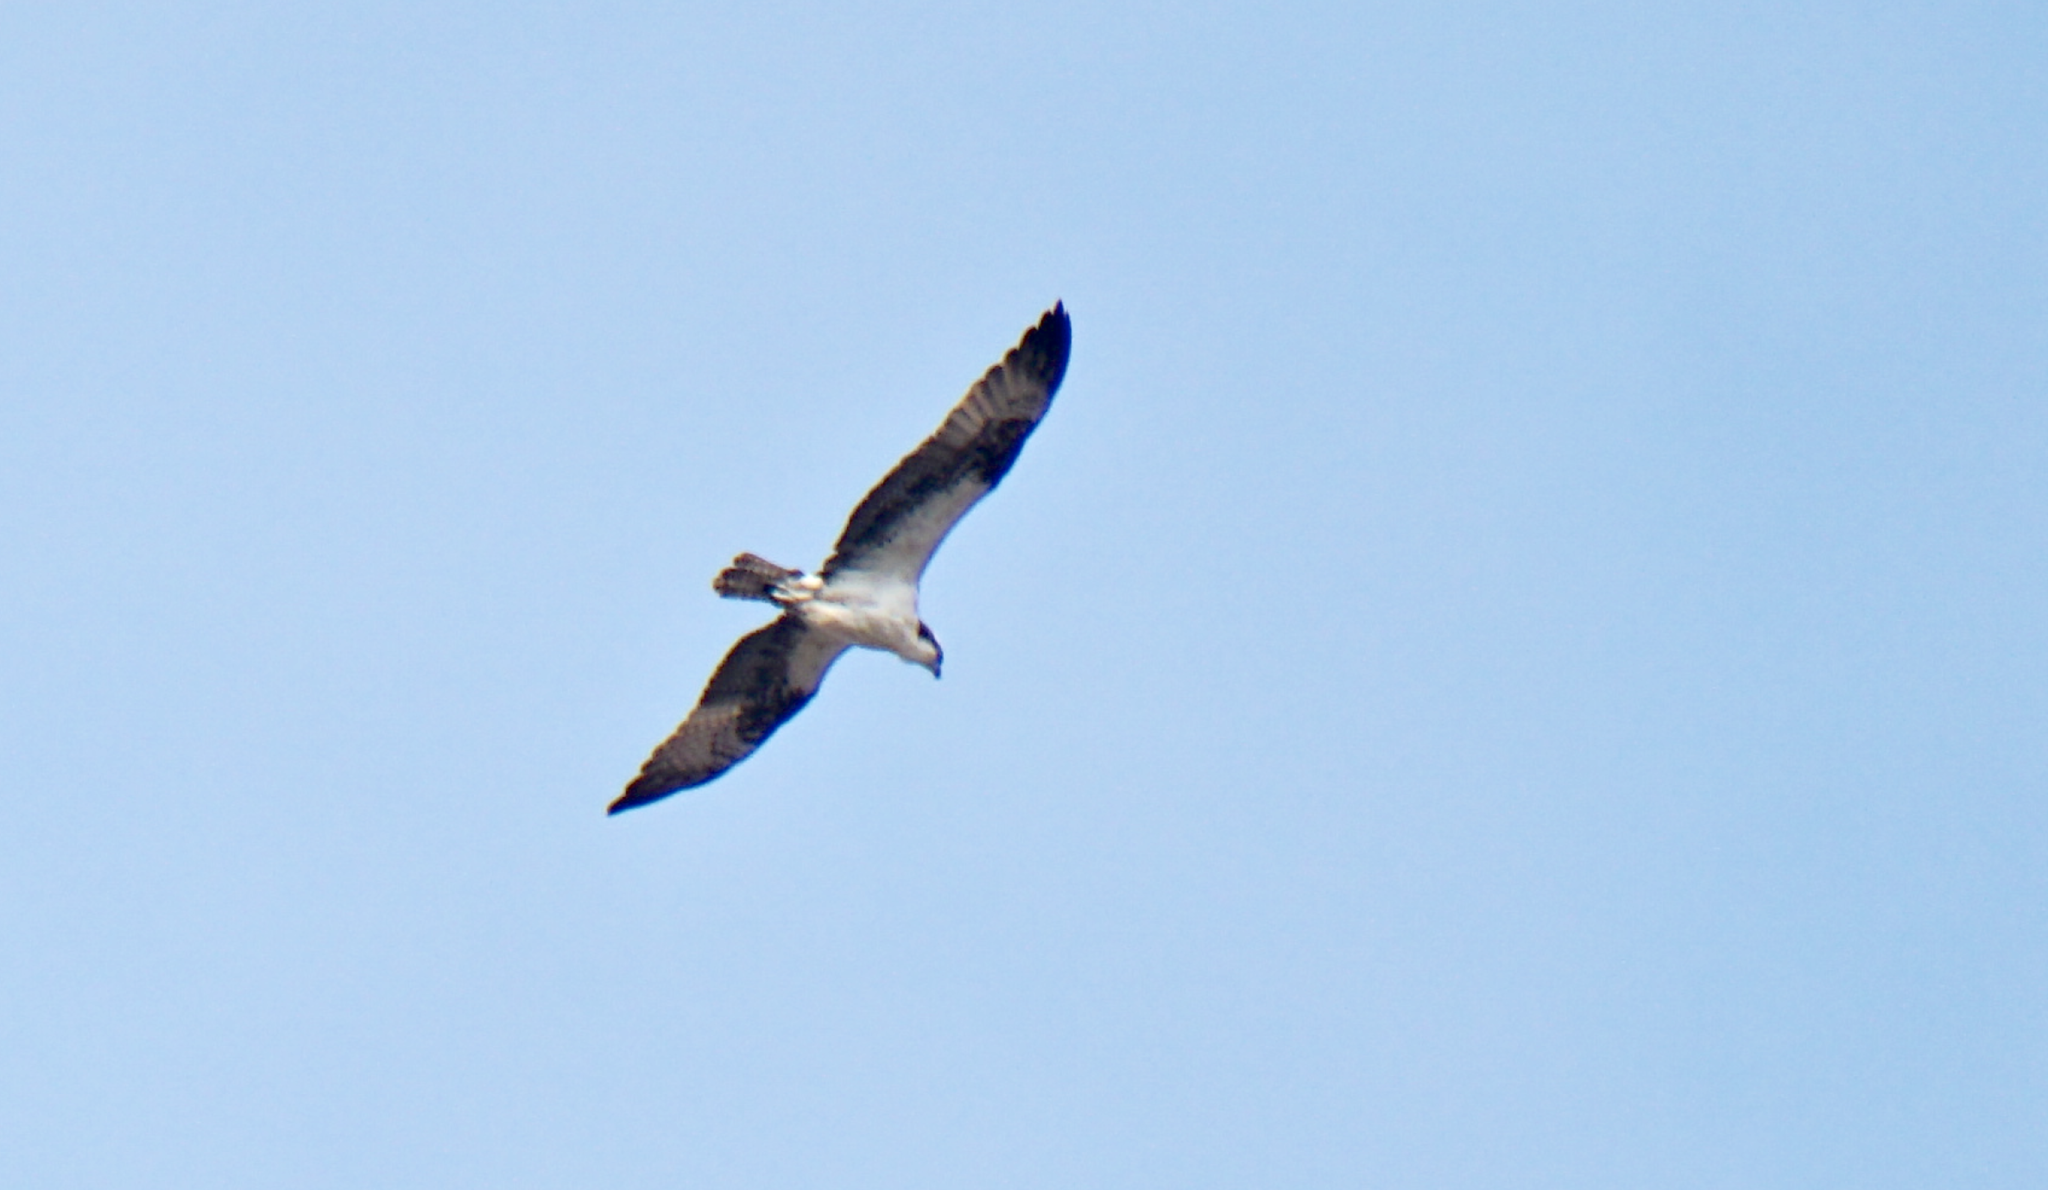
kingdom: Animalia
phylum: Chordata
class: Aves
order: Accipitriformes
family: Pandionidae
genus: Pandion
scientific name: Pandion haliaetus
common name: Osprey
